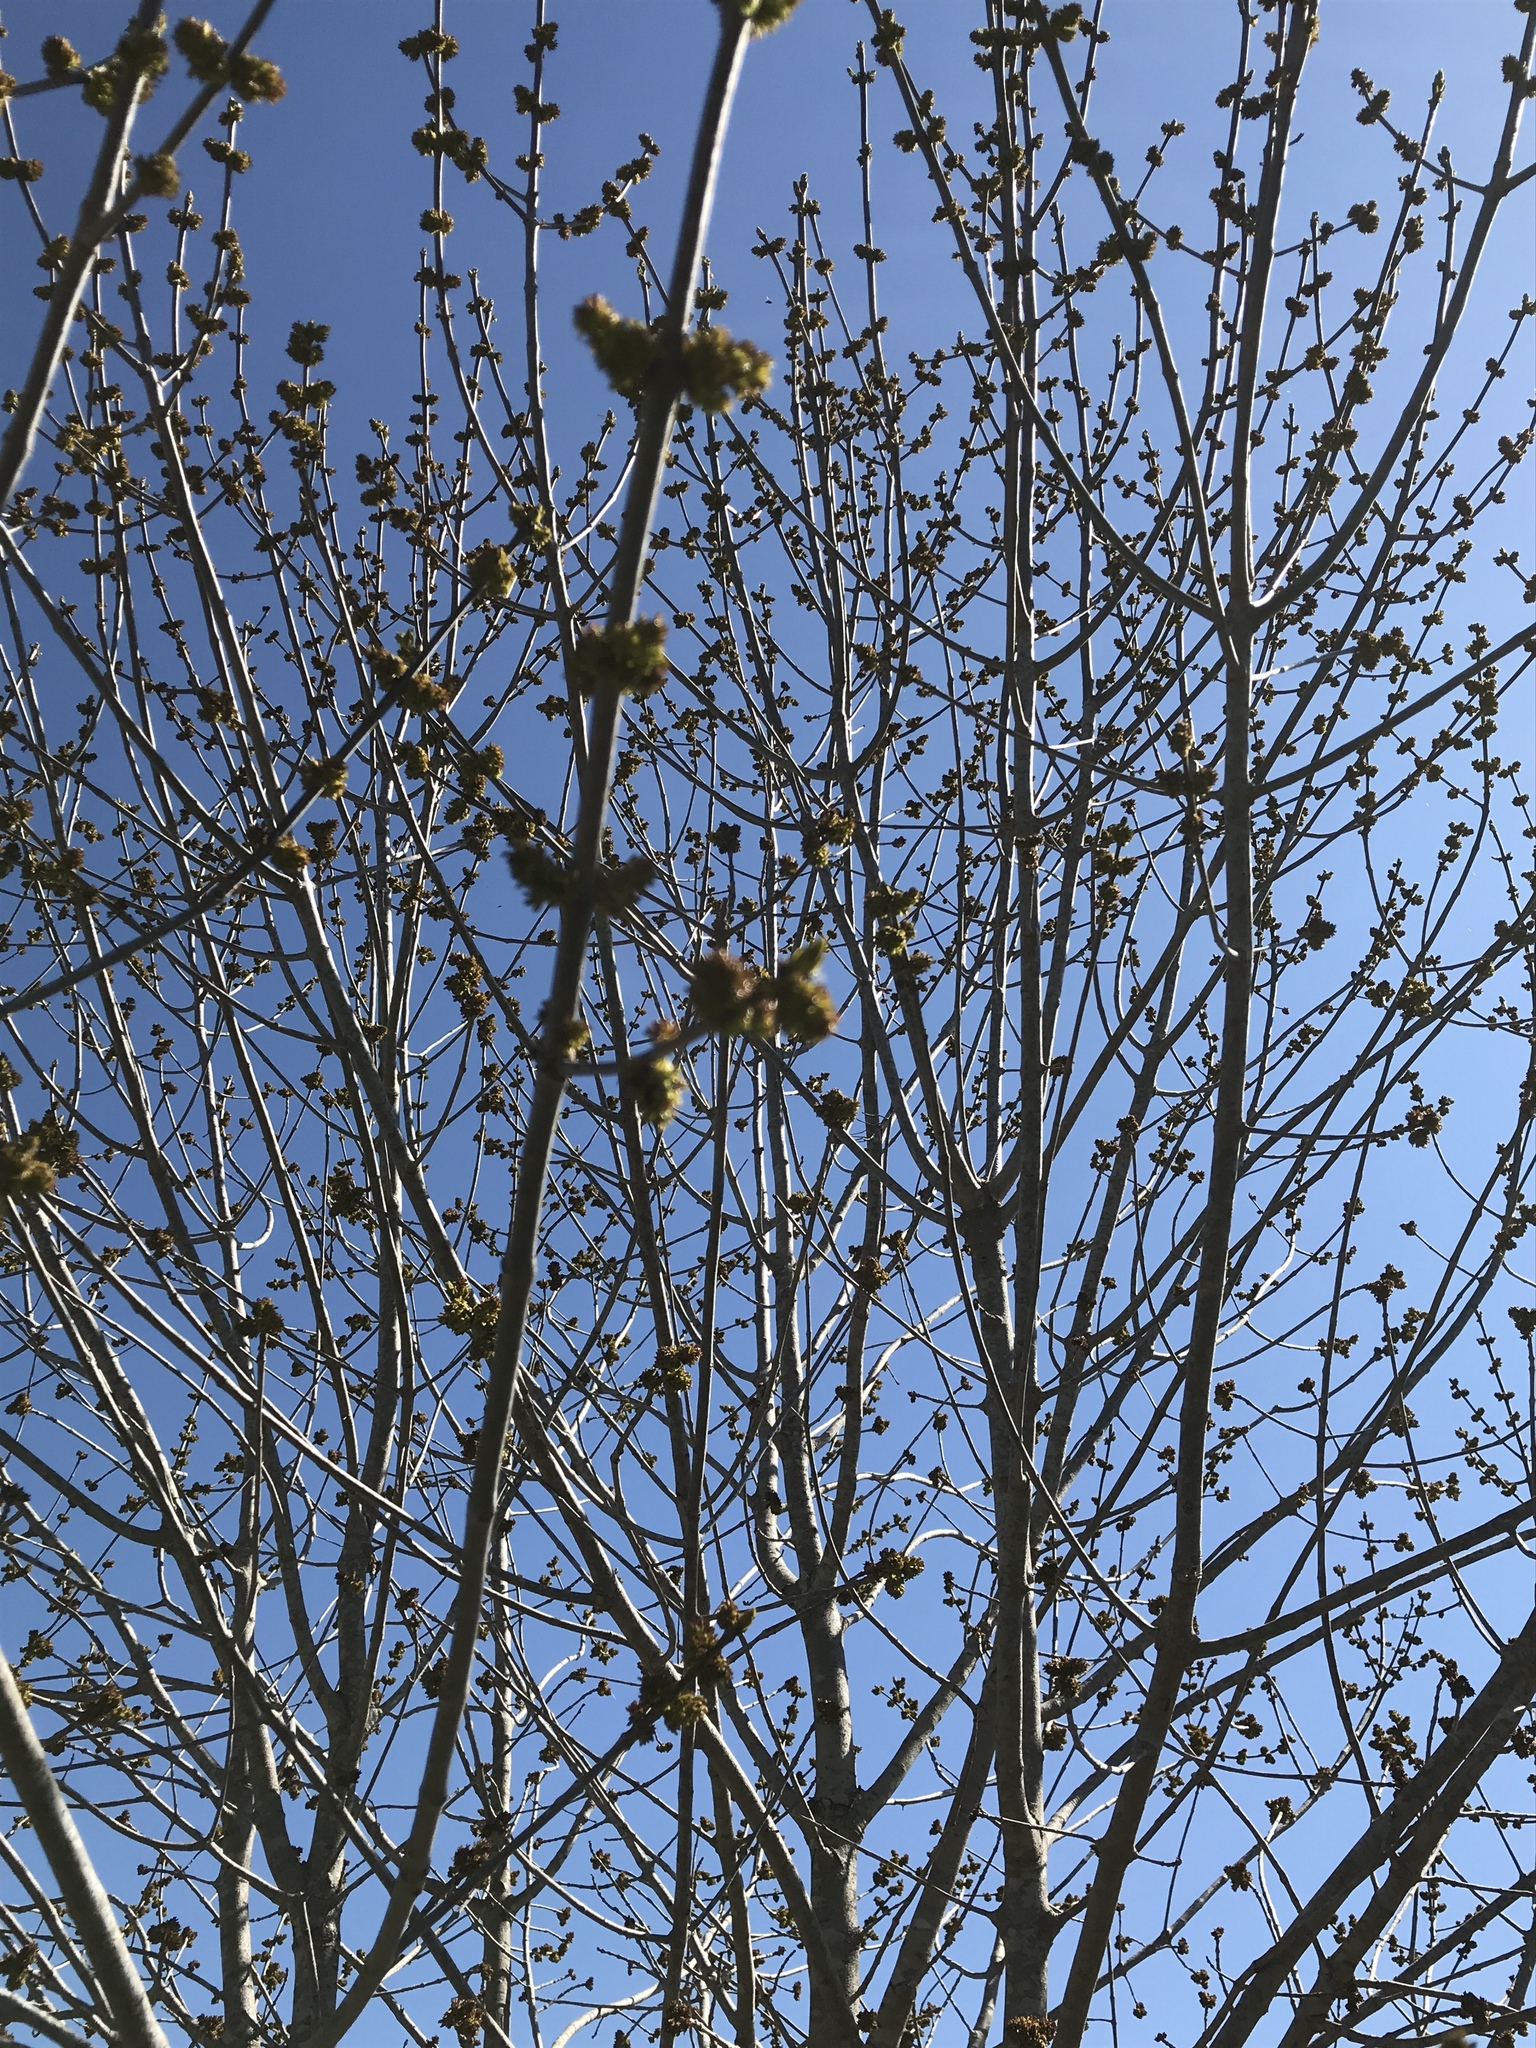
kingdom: Plantae
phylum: Tracheophyta
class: Magnoliopsida
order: Lamiales
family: Oleaceae
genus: Fraxinus
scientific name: Fraxinus albicans
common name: Texas ash
